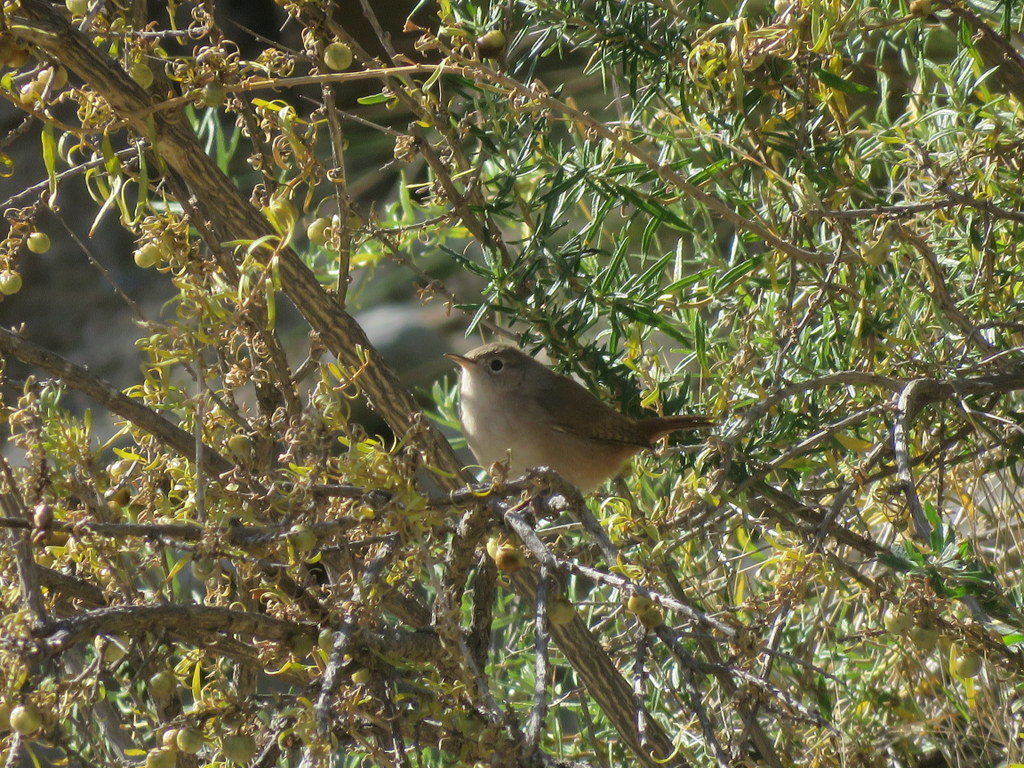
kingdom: Animalia
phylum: Chordata
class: Aves
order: Passeriformes
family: Troglodytidae
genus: Troglodytes
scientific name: Troglodytes aedon
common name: House wren
